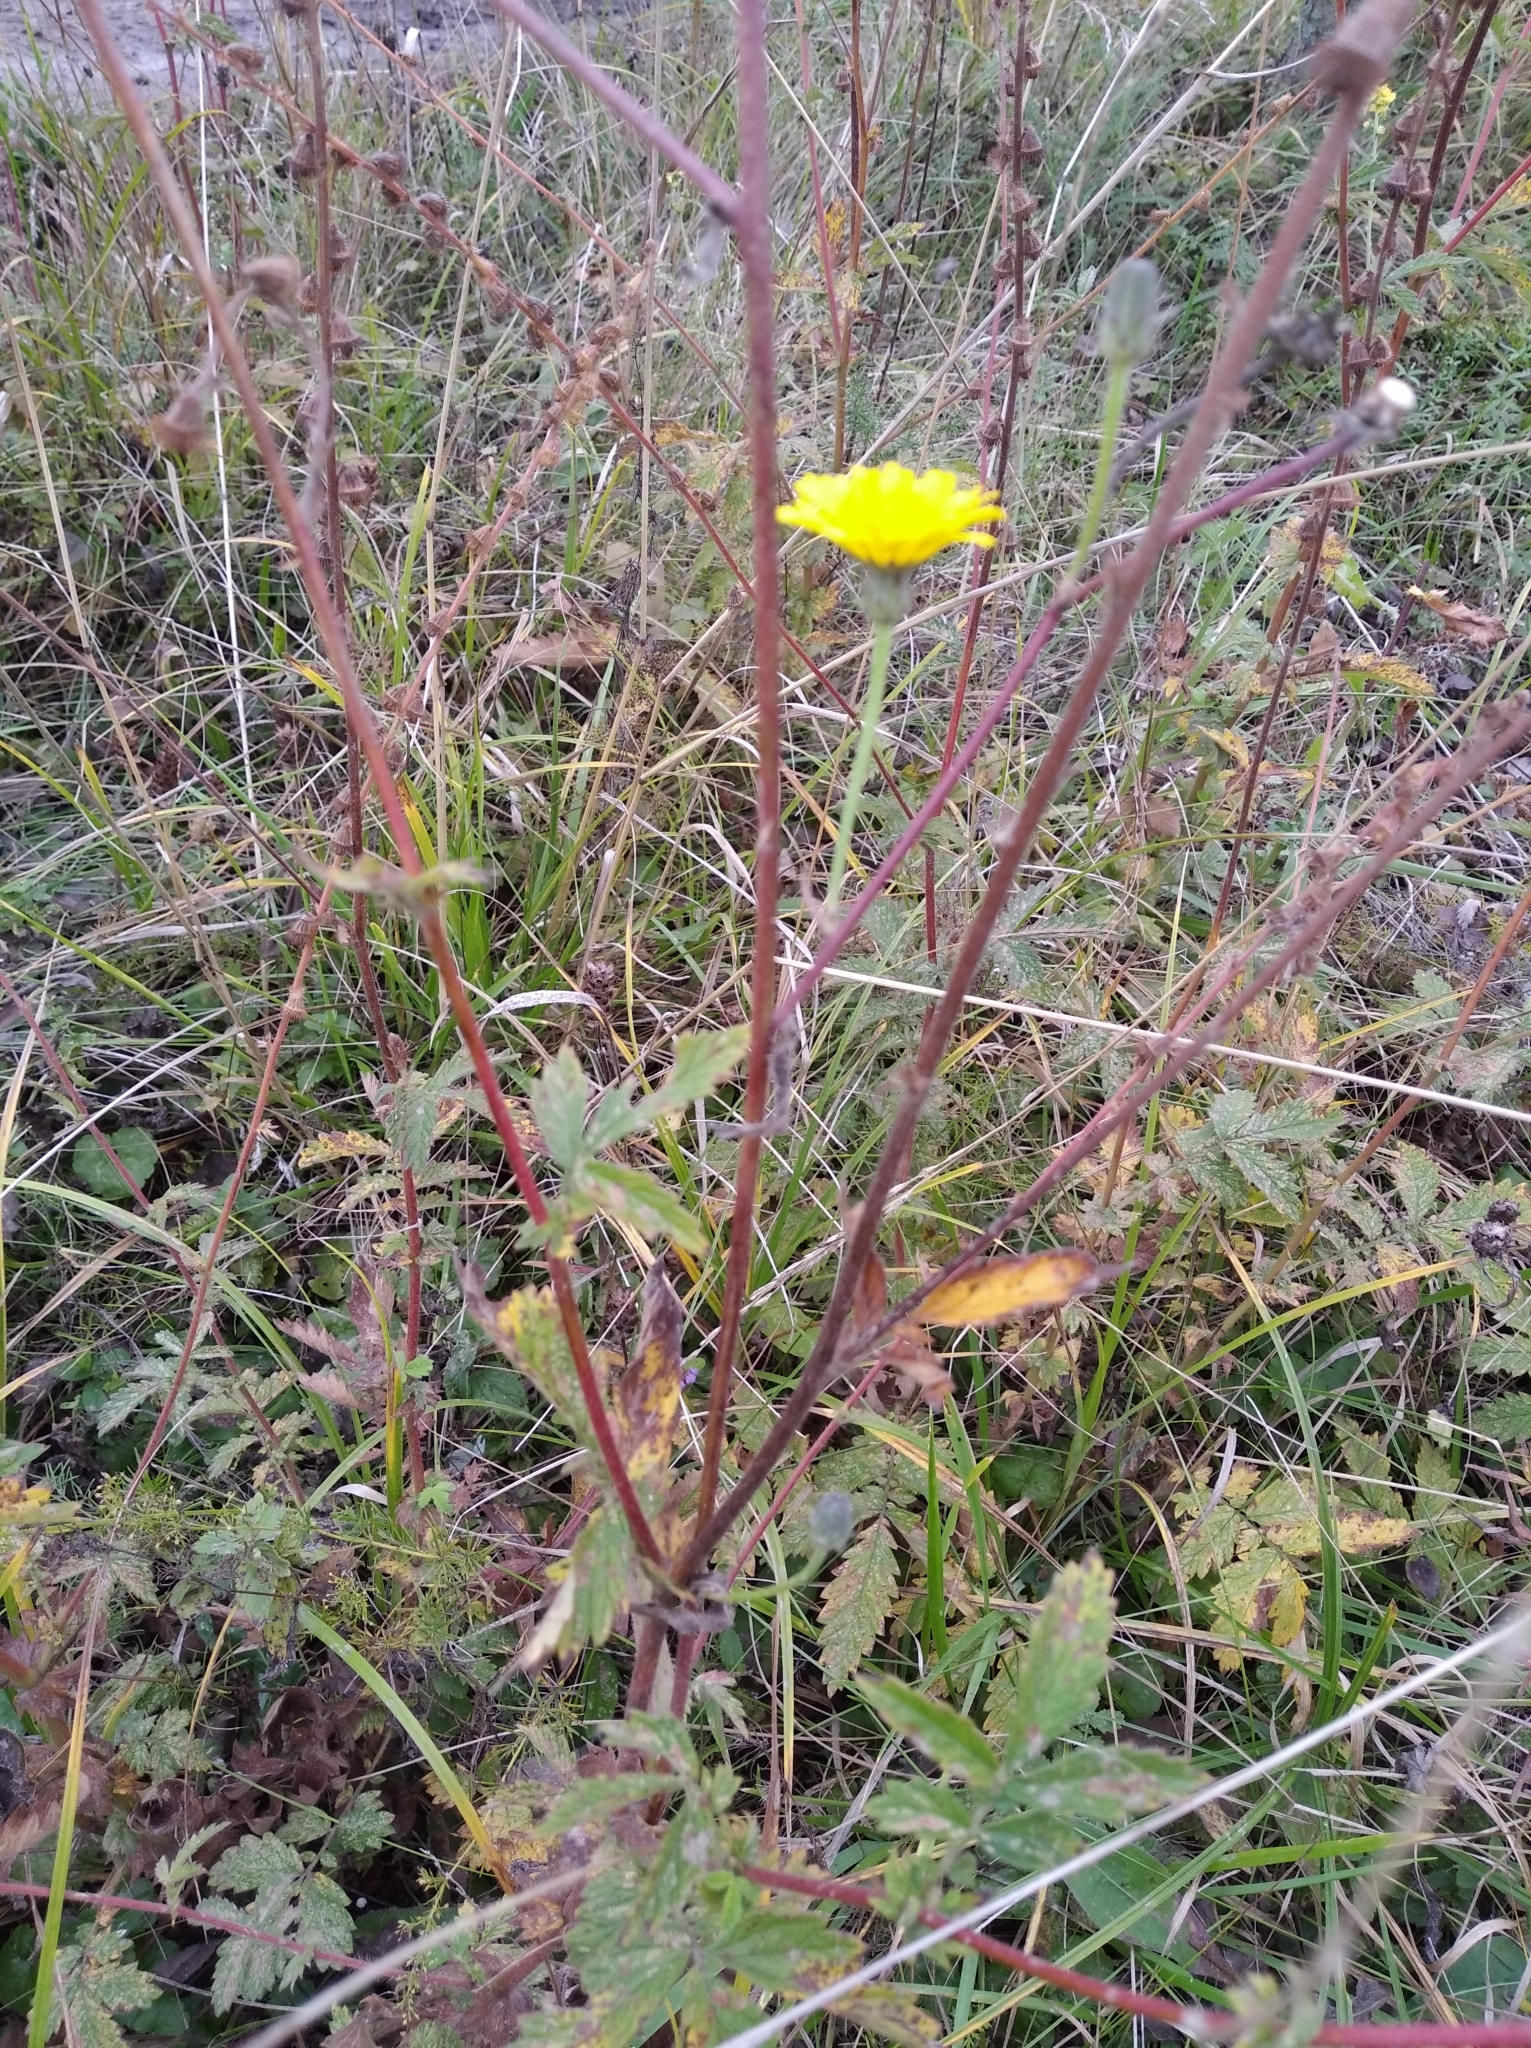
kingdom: Plantae
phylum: Tracheophyta
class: Magnoliopsida
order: Asterales
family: Asteraceae
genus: Picris
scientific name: Picris hieracioides
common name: Hawkweed oxtongue
